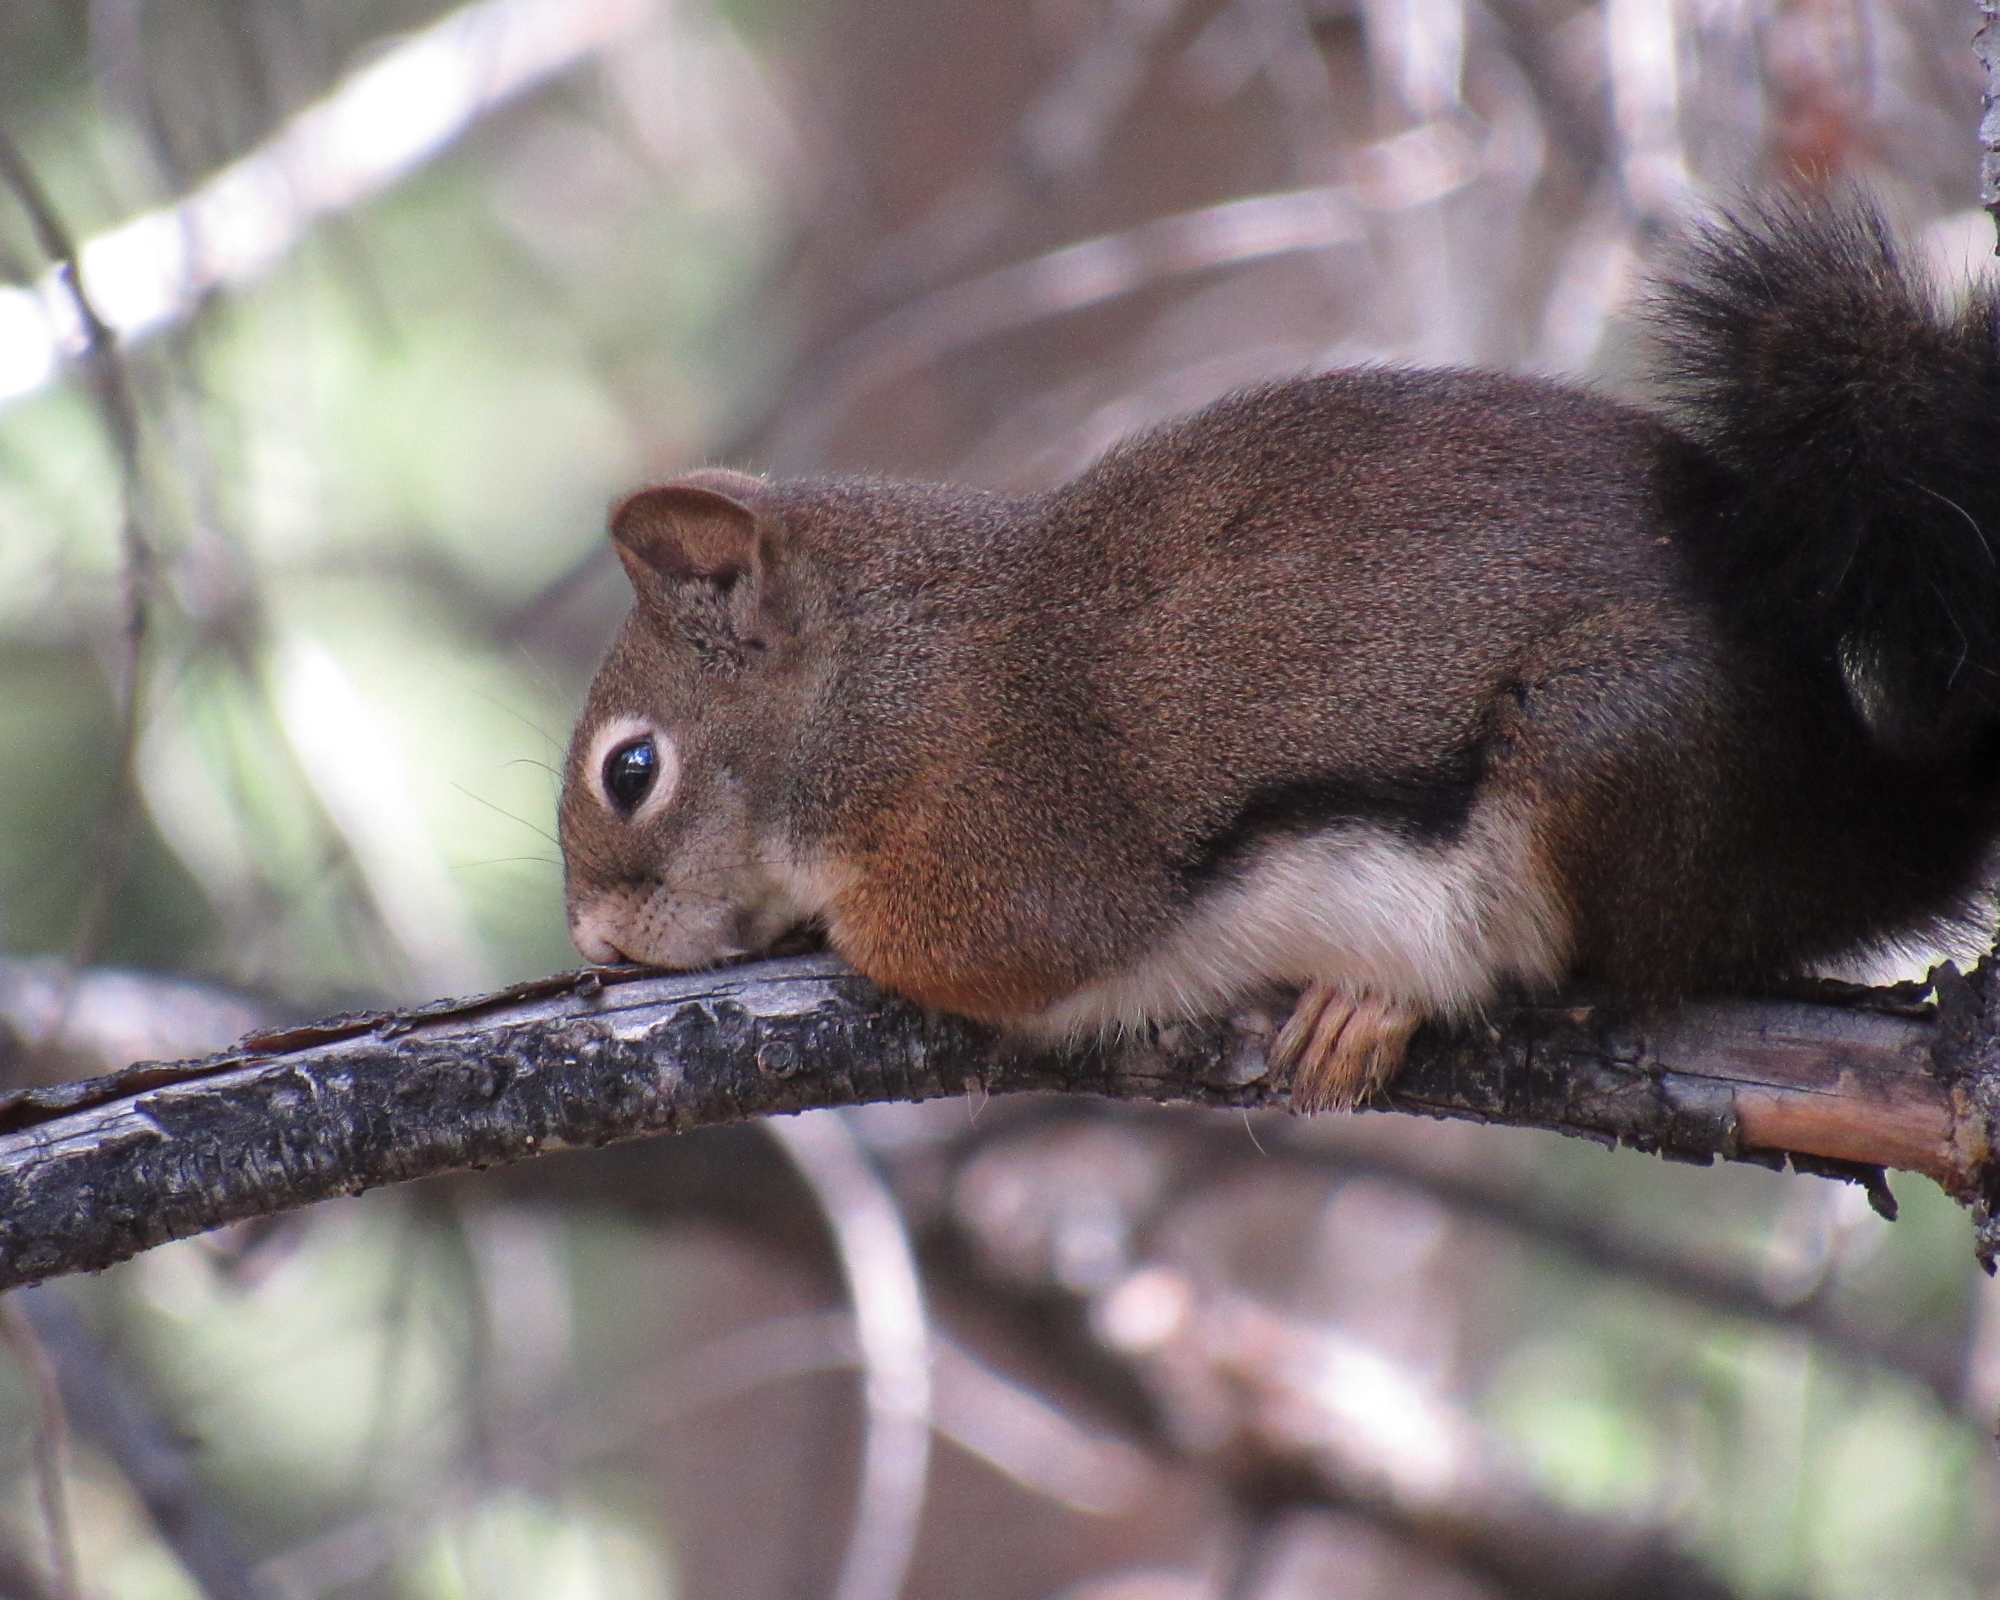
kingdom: Animalia
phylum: Chordata
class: Mammalia
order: Rodentia
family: Sciuridae
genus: Tamiasciurus
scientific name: Tamiasciurus hudsonicus
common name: Red squirrel
